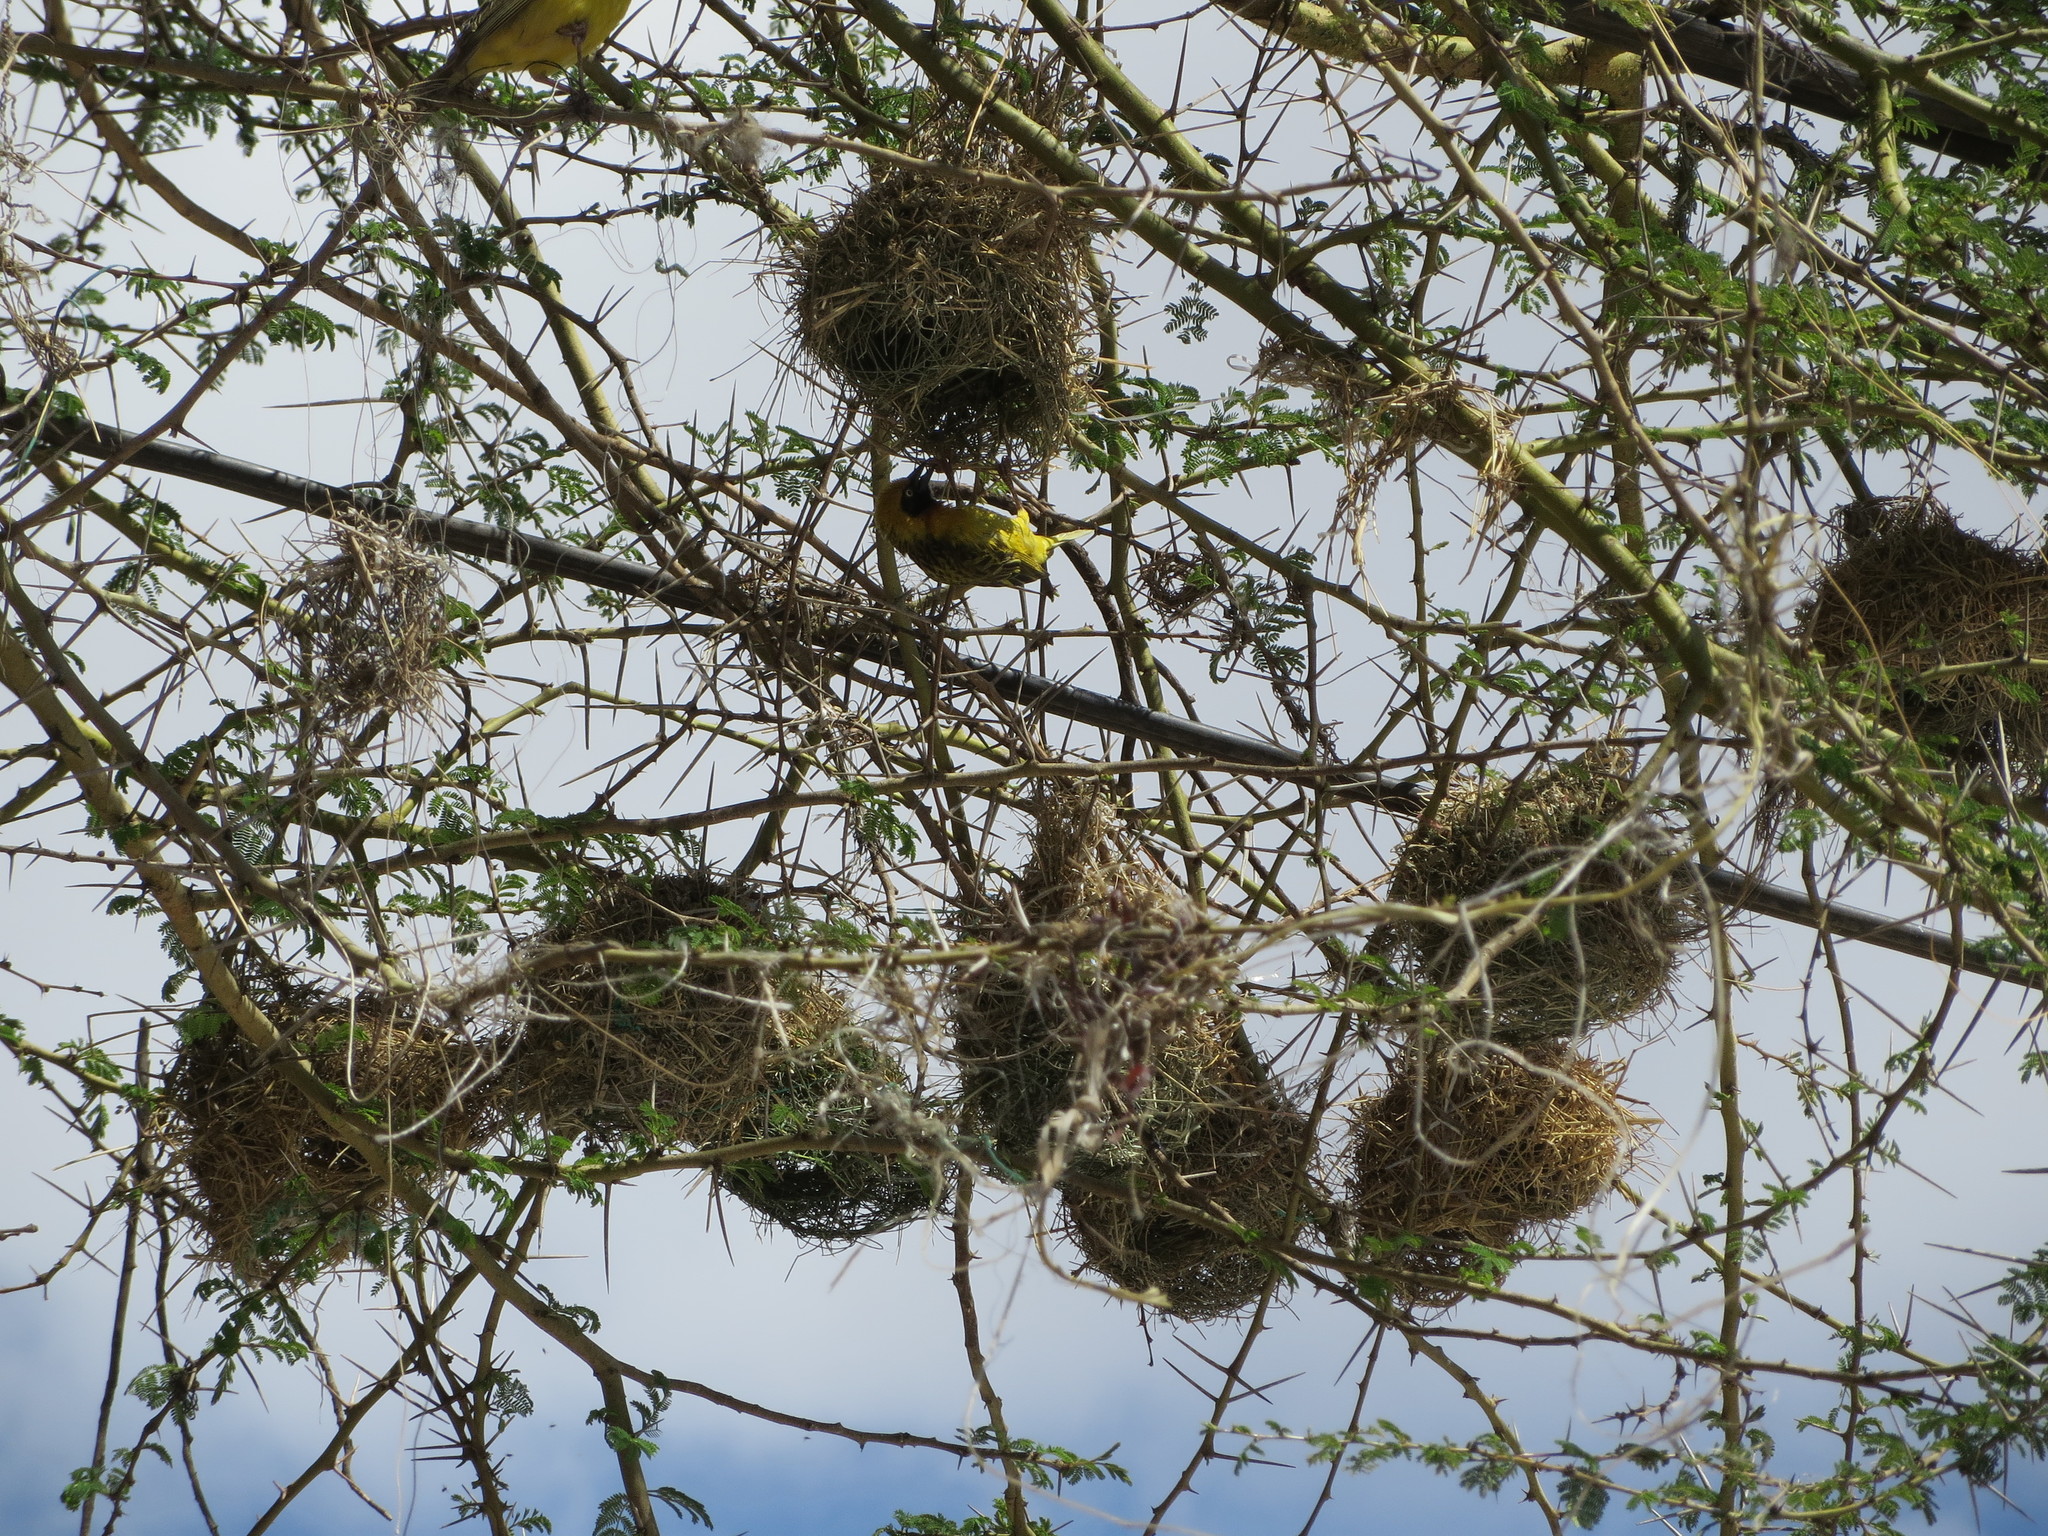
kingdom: Animalia
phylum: Chordata
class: Aves
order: Passeriformes
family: Ploceidae
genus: Ploceus
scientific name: Ploceus spekei
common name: Speke's weaver
